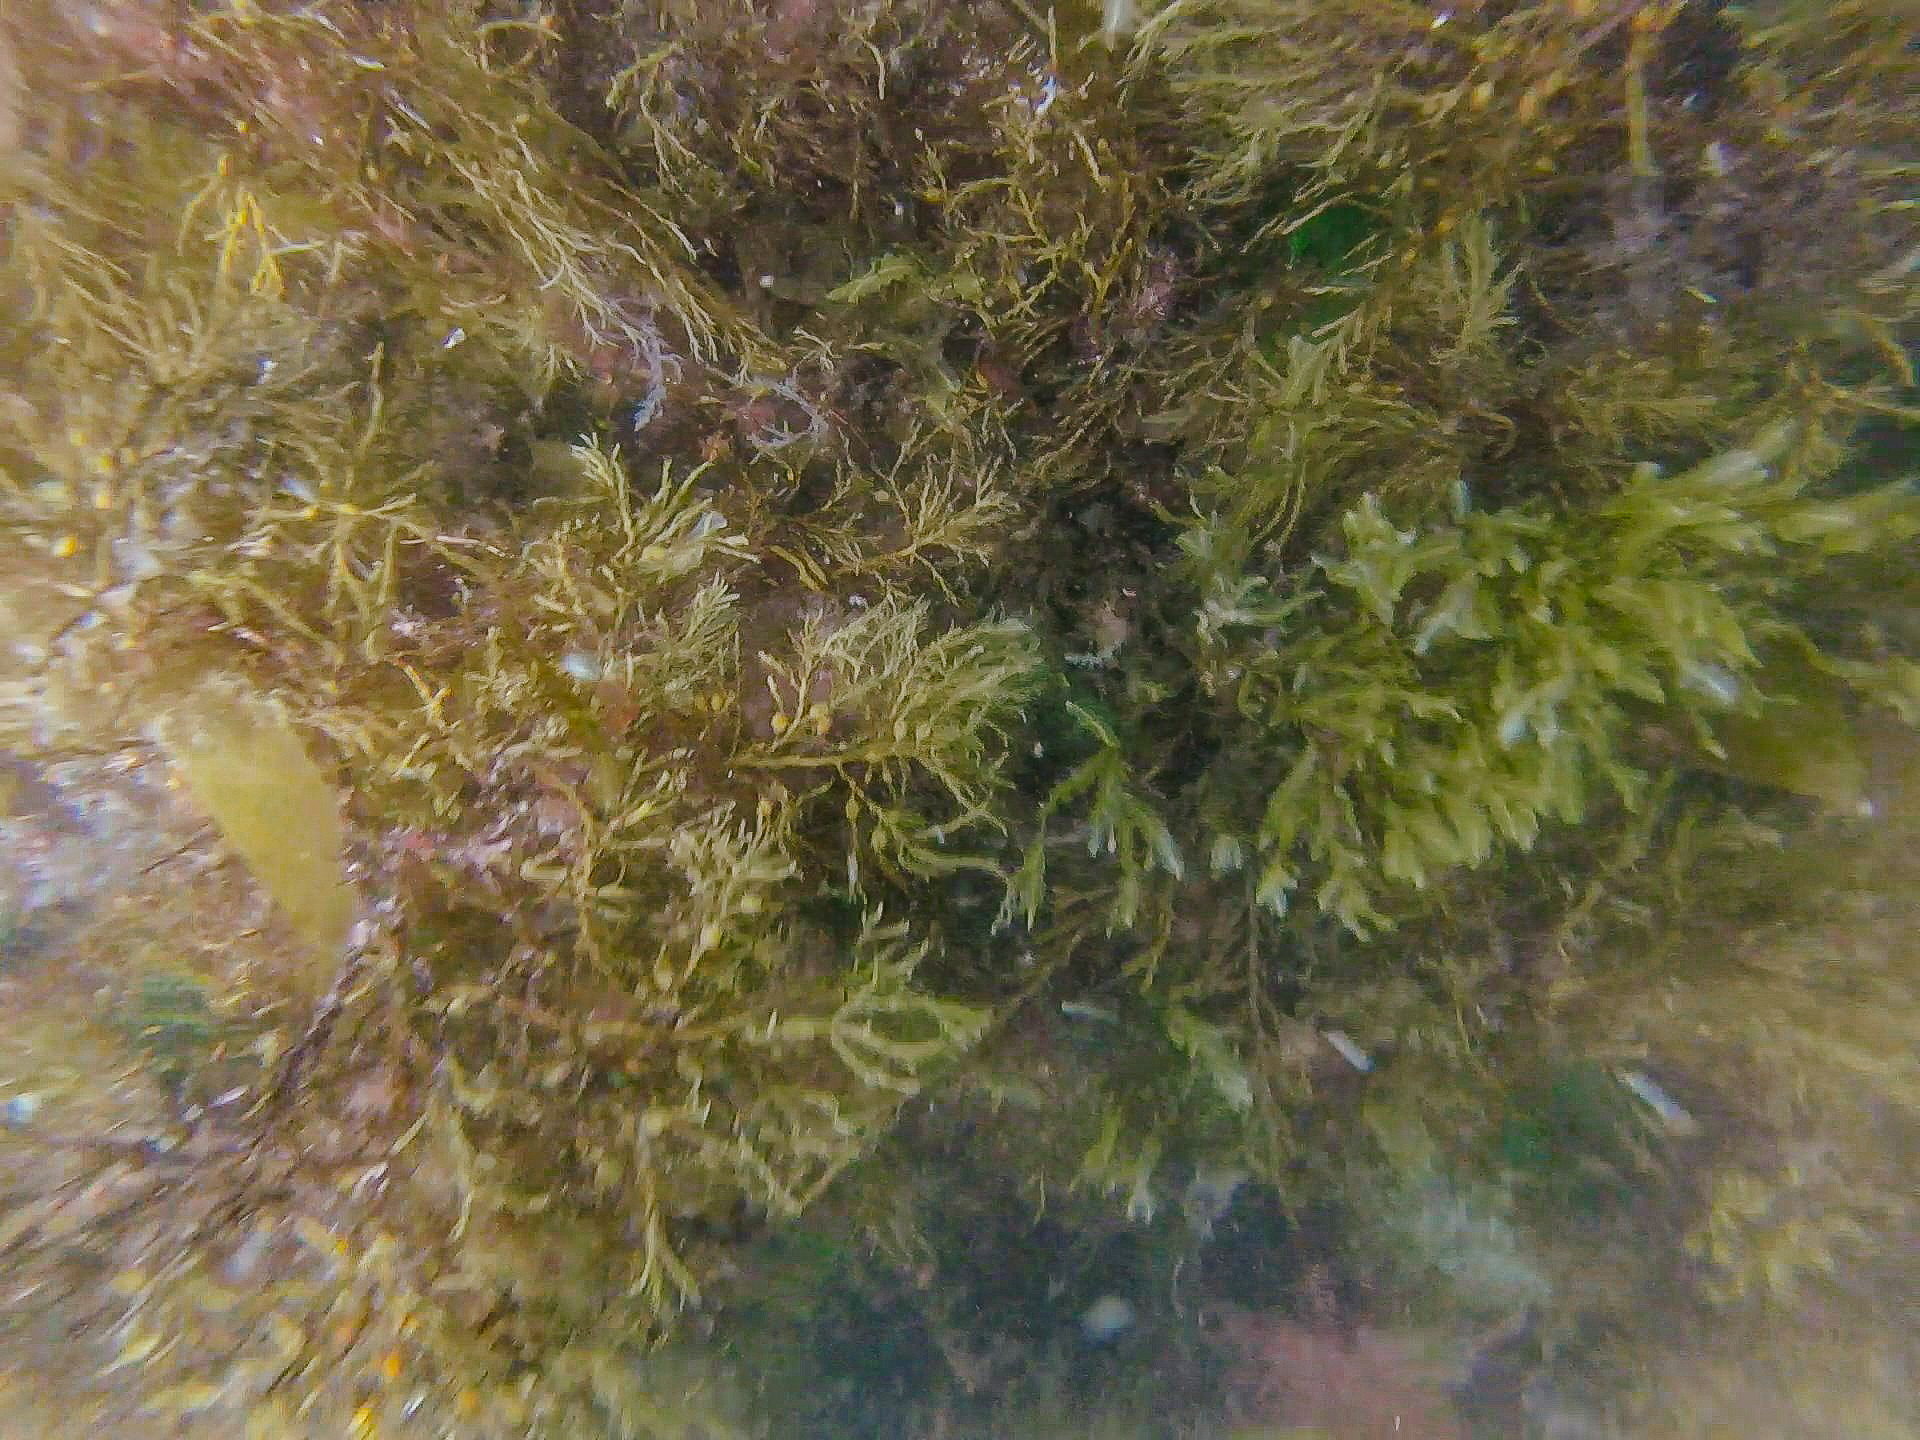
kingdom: Chromista
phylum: Ochrophyta
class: Phaeophyceae
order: Fucales
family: Sargassaceae
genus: Cystoseira
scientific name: Cystoseira Gongolaria baccata
